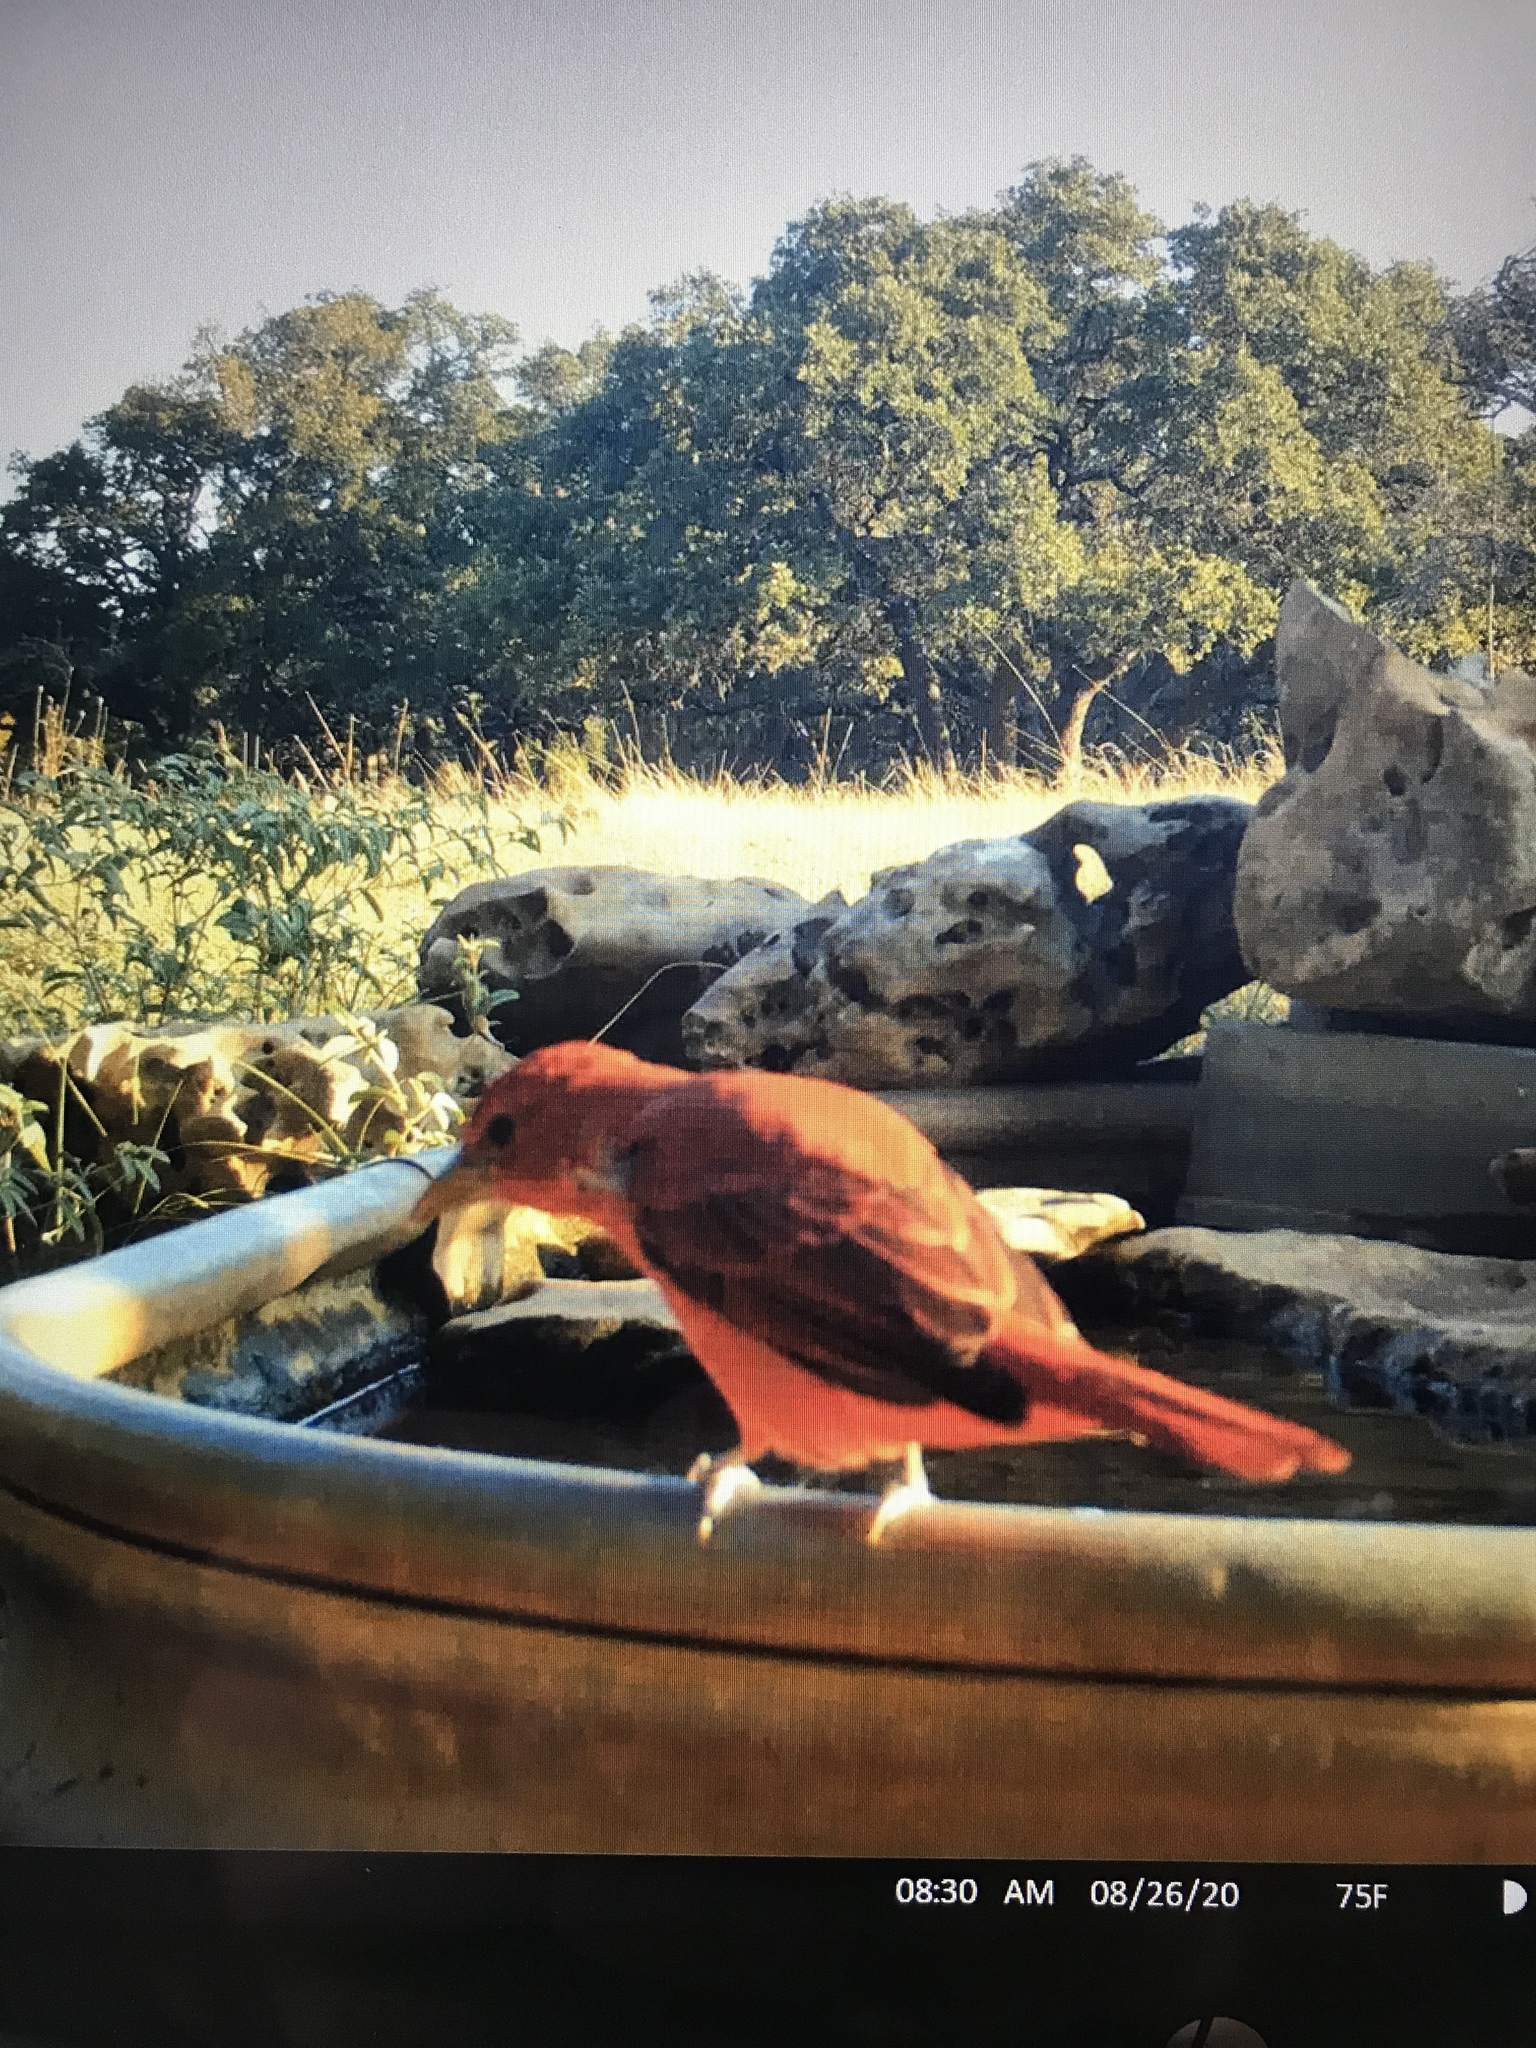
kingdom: Animalia
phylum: Chordata
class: Aves
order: Passeriformes
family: Cardinalidae
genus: Piranga
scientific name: Piranga rubra
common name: Summer tanager
